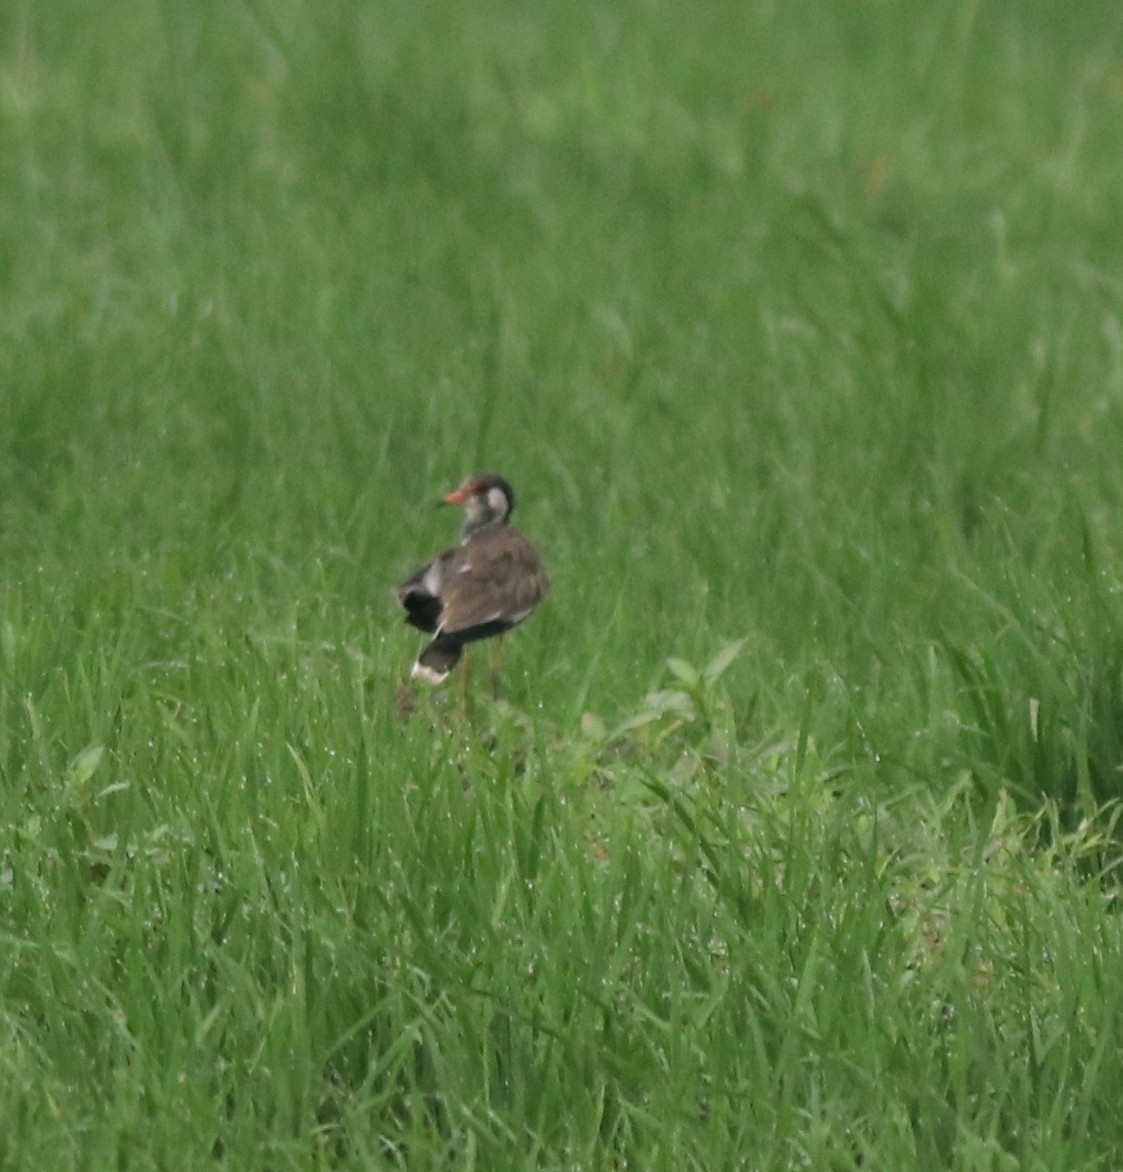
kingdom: Animalia
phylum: Chordata
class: Aves
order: Charadriiformes
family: Charadriidae
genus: Vanellus
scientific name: Vanellus indicus
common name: Red-wattled lapwing
